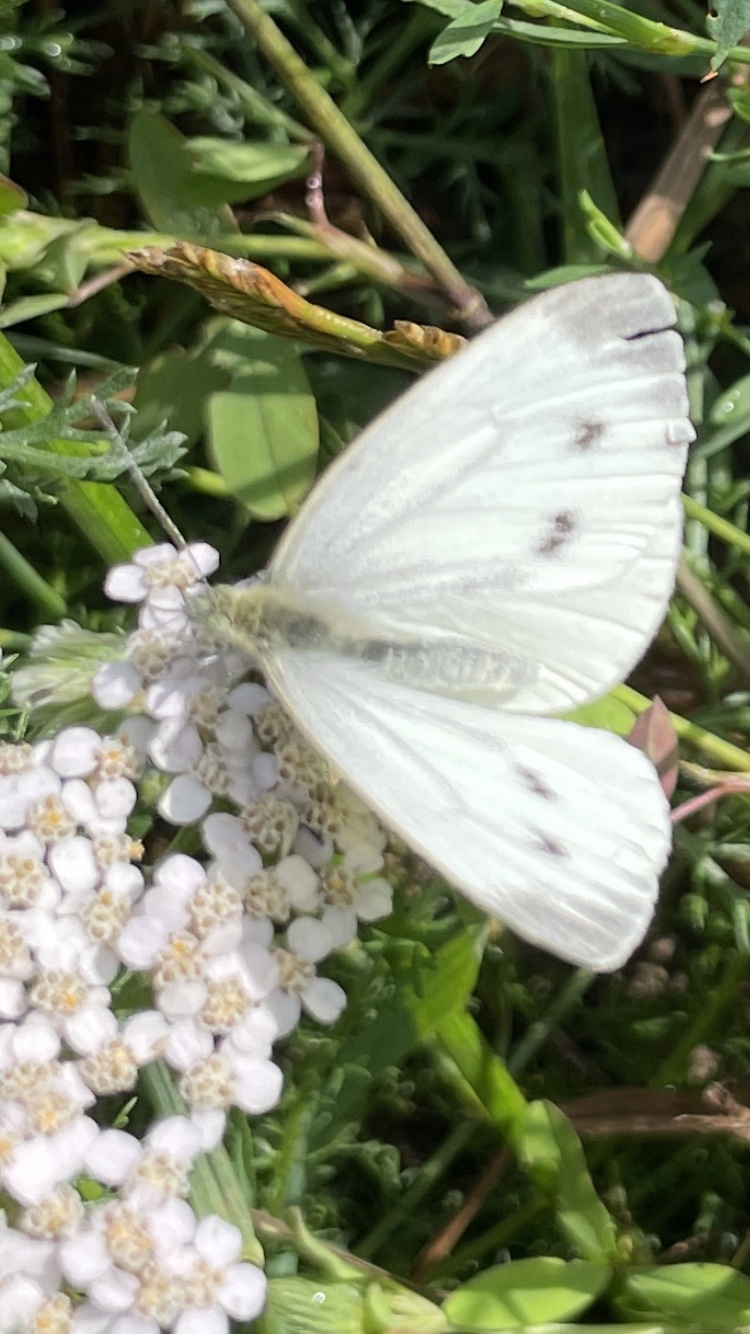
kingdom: Animalia
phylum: Arthropoda
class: Insecta
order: Lepidoptera
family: Pieridae
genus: Pieris
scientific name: Pieris napi
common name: Green-veined white
